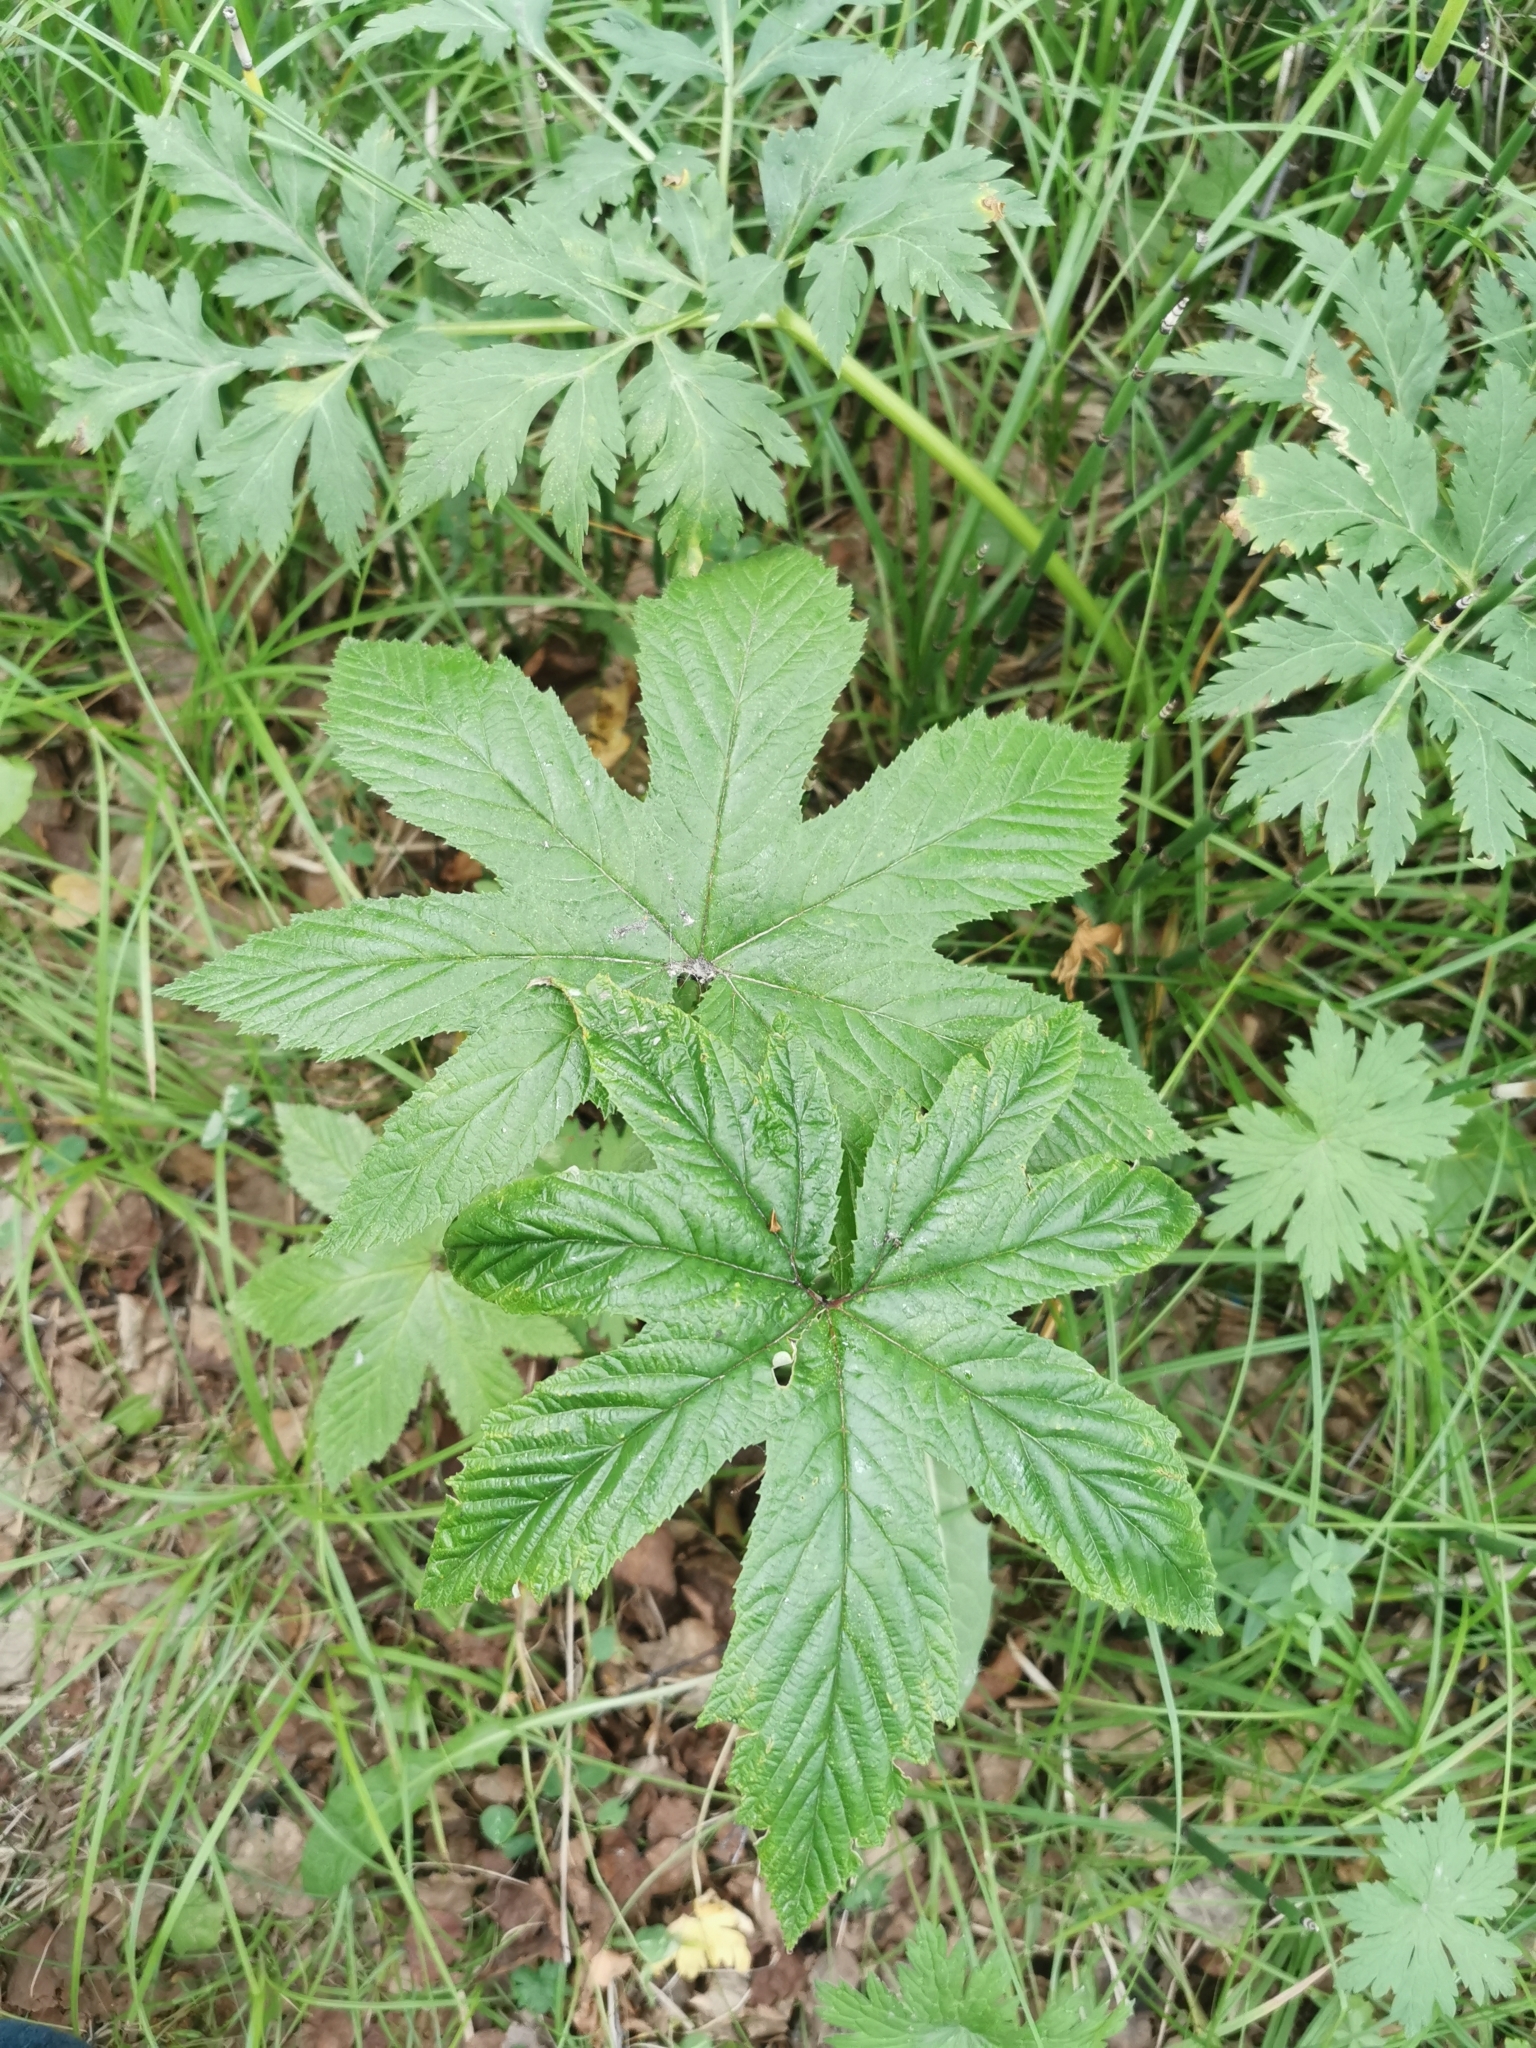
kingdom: Plantae
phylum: Tracheophyta
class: Magnoliopsida
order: Rosales
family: Rosaceae
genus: Filipendula
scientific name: Filipendula digitata
